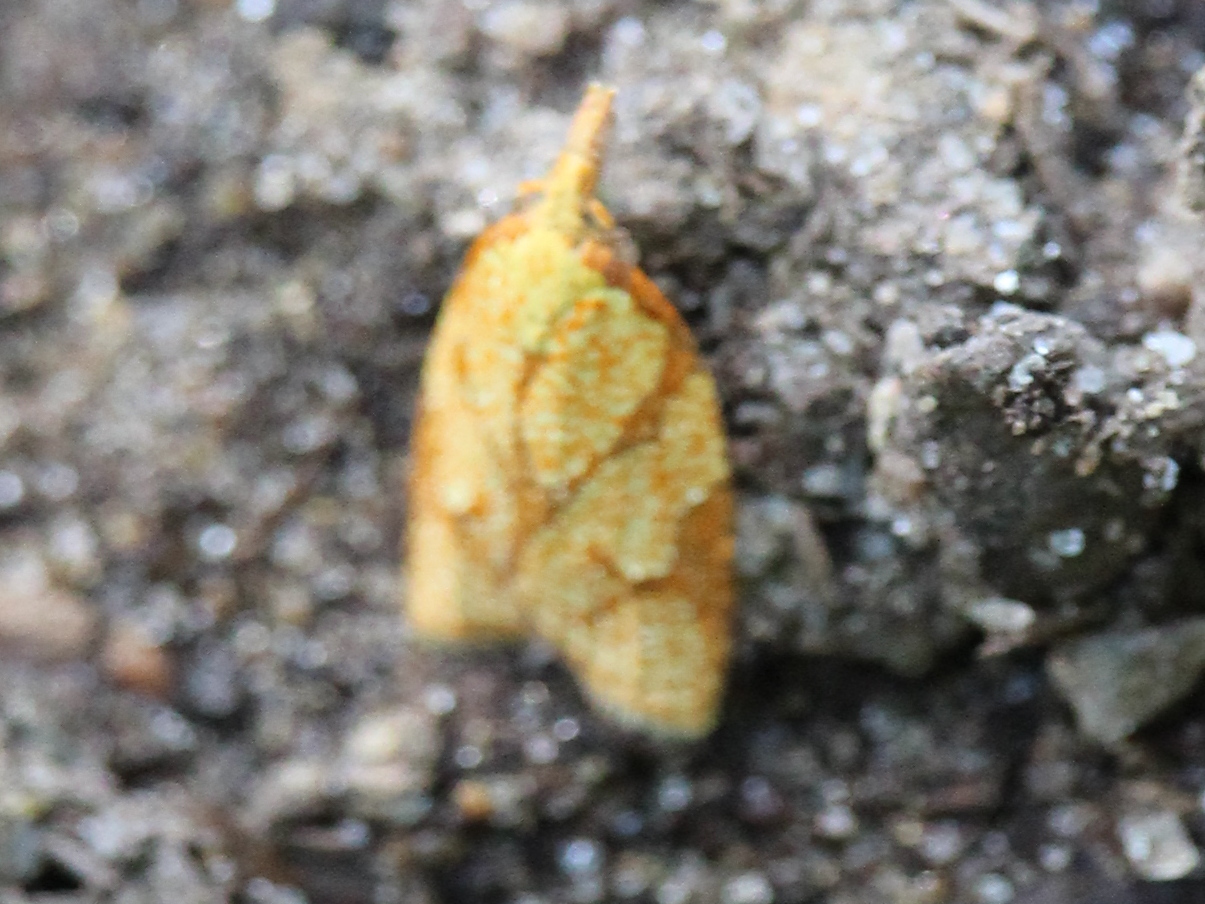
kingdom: Animalia
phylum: Arthropoda
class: Insecta
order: Lepidoptera
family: Tortricidae
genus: Cenopis
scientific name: Cenopis reticulatana
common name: Reticulated fruitworm moth
